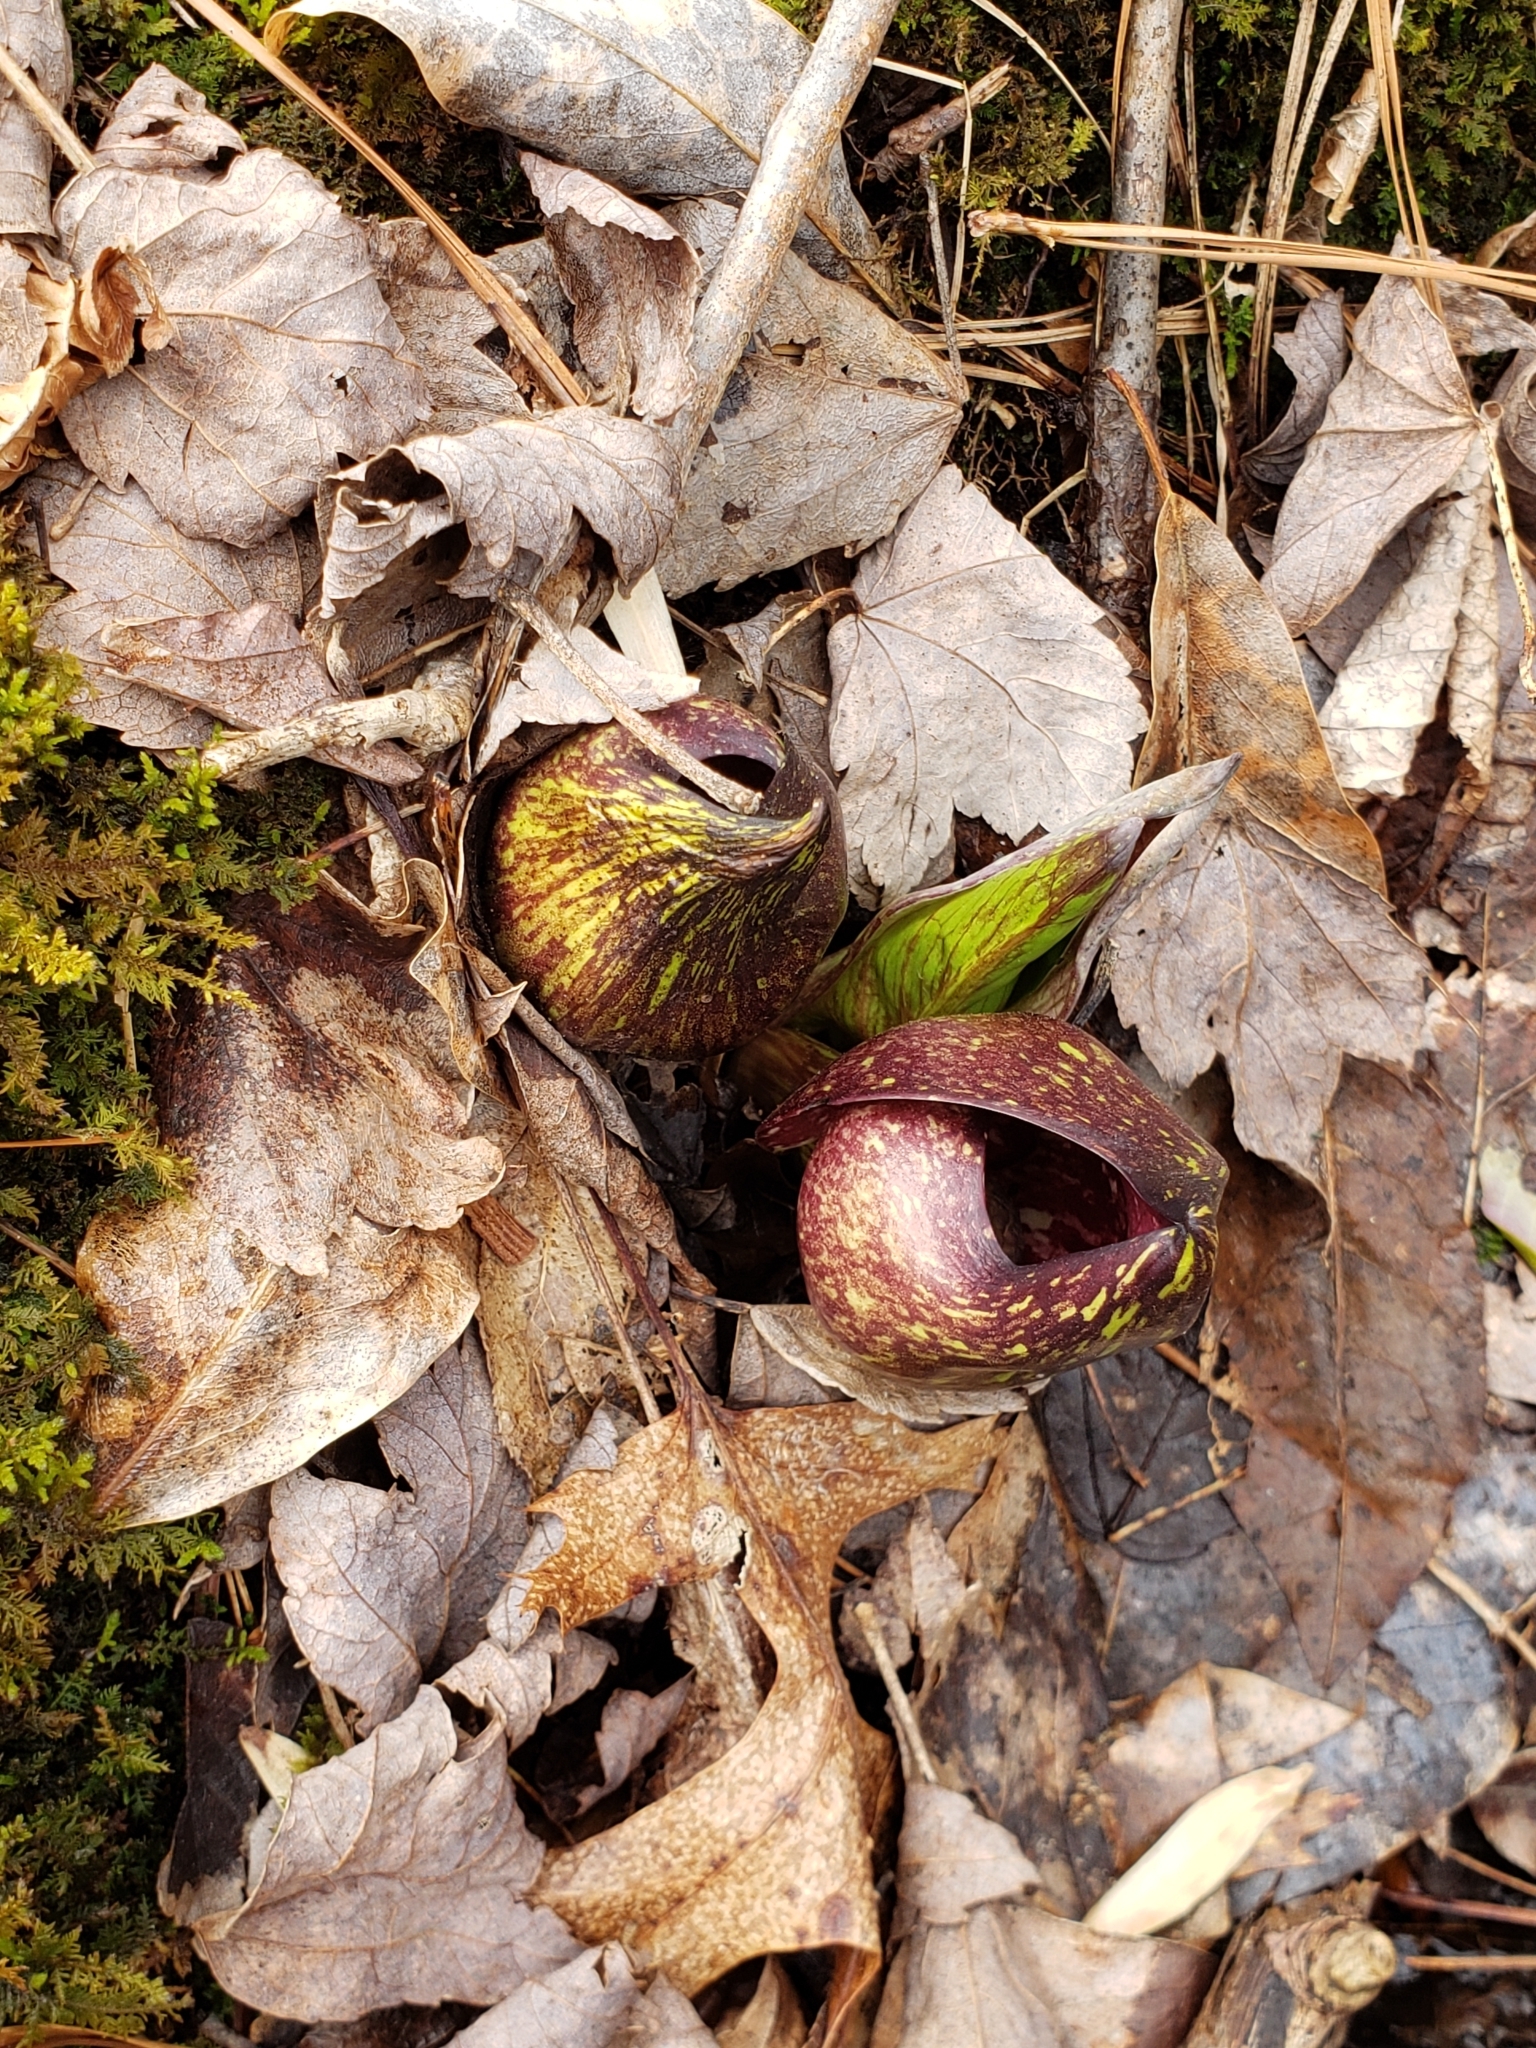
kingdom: Plantae
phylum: Tracheophyta
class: Liliopsida
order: Alismatales
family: Araceae
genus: Symplocarpus
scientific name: Symplocarpus foetidus
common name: Eastern skunk cabbage
